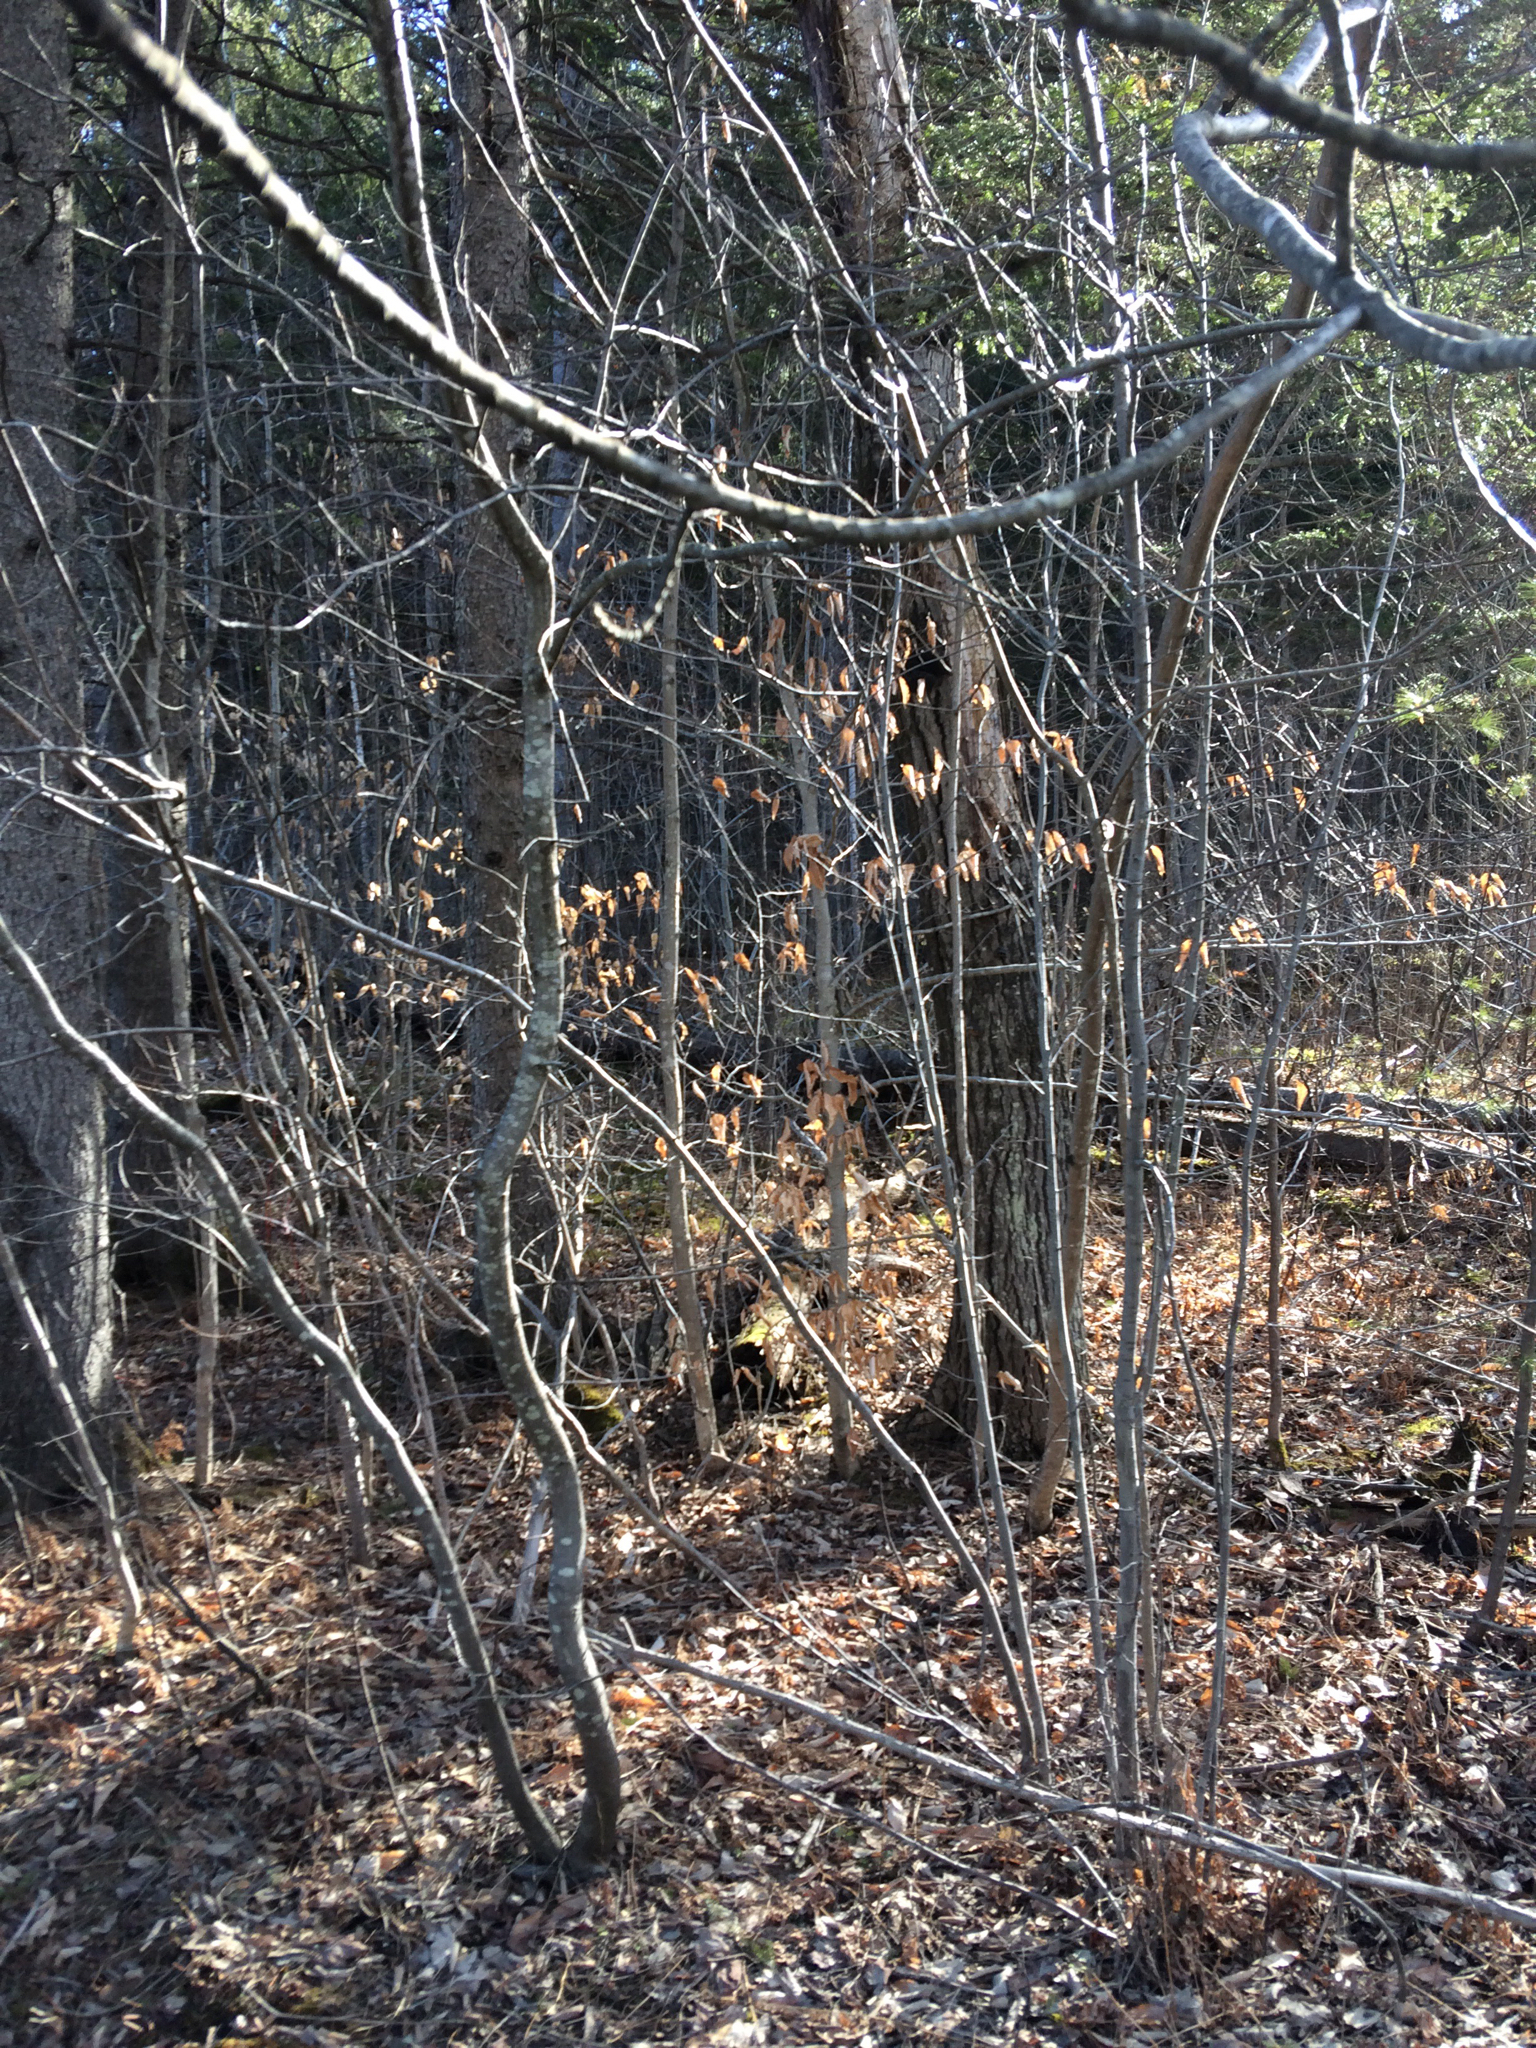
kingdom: Plantae
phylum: Tracheophyta
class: Magnoliopsida
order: Fagales
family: Fagaceae
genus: Fagus
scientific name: Fagus grandifolia
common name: American beech
